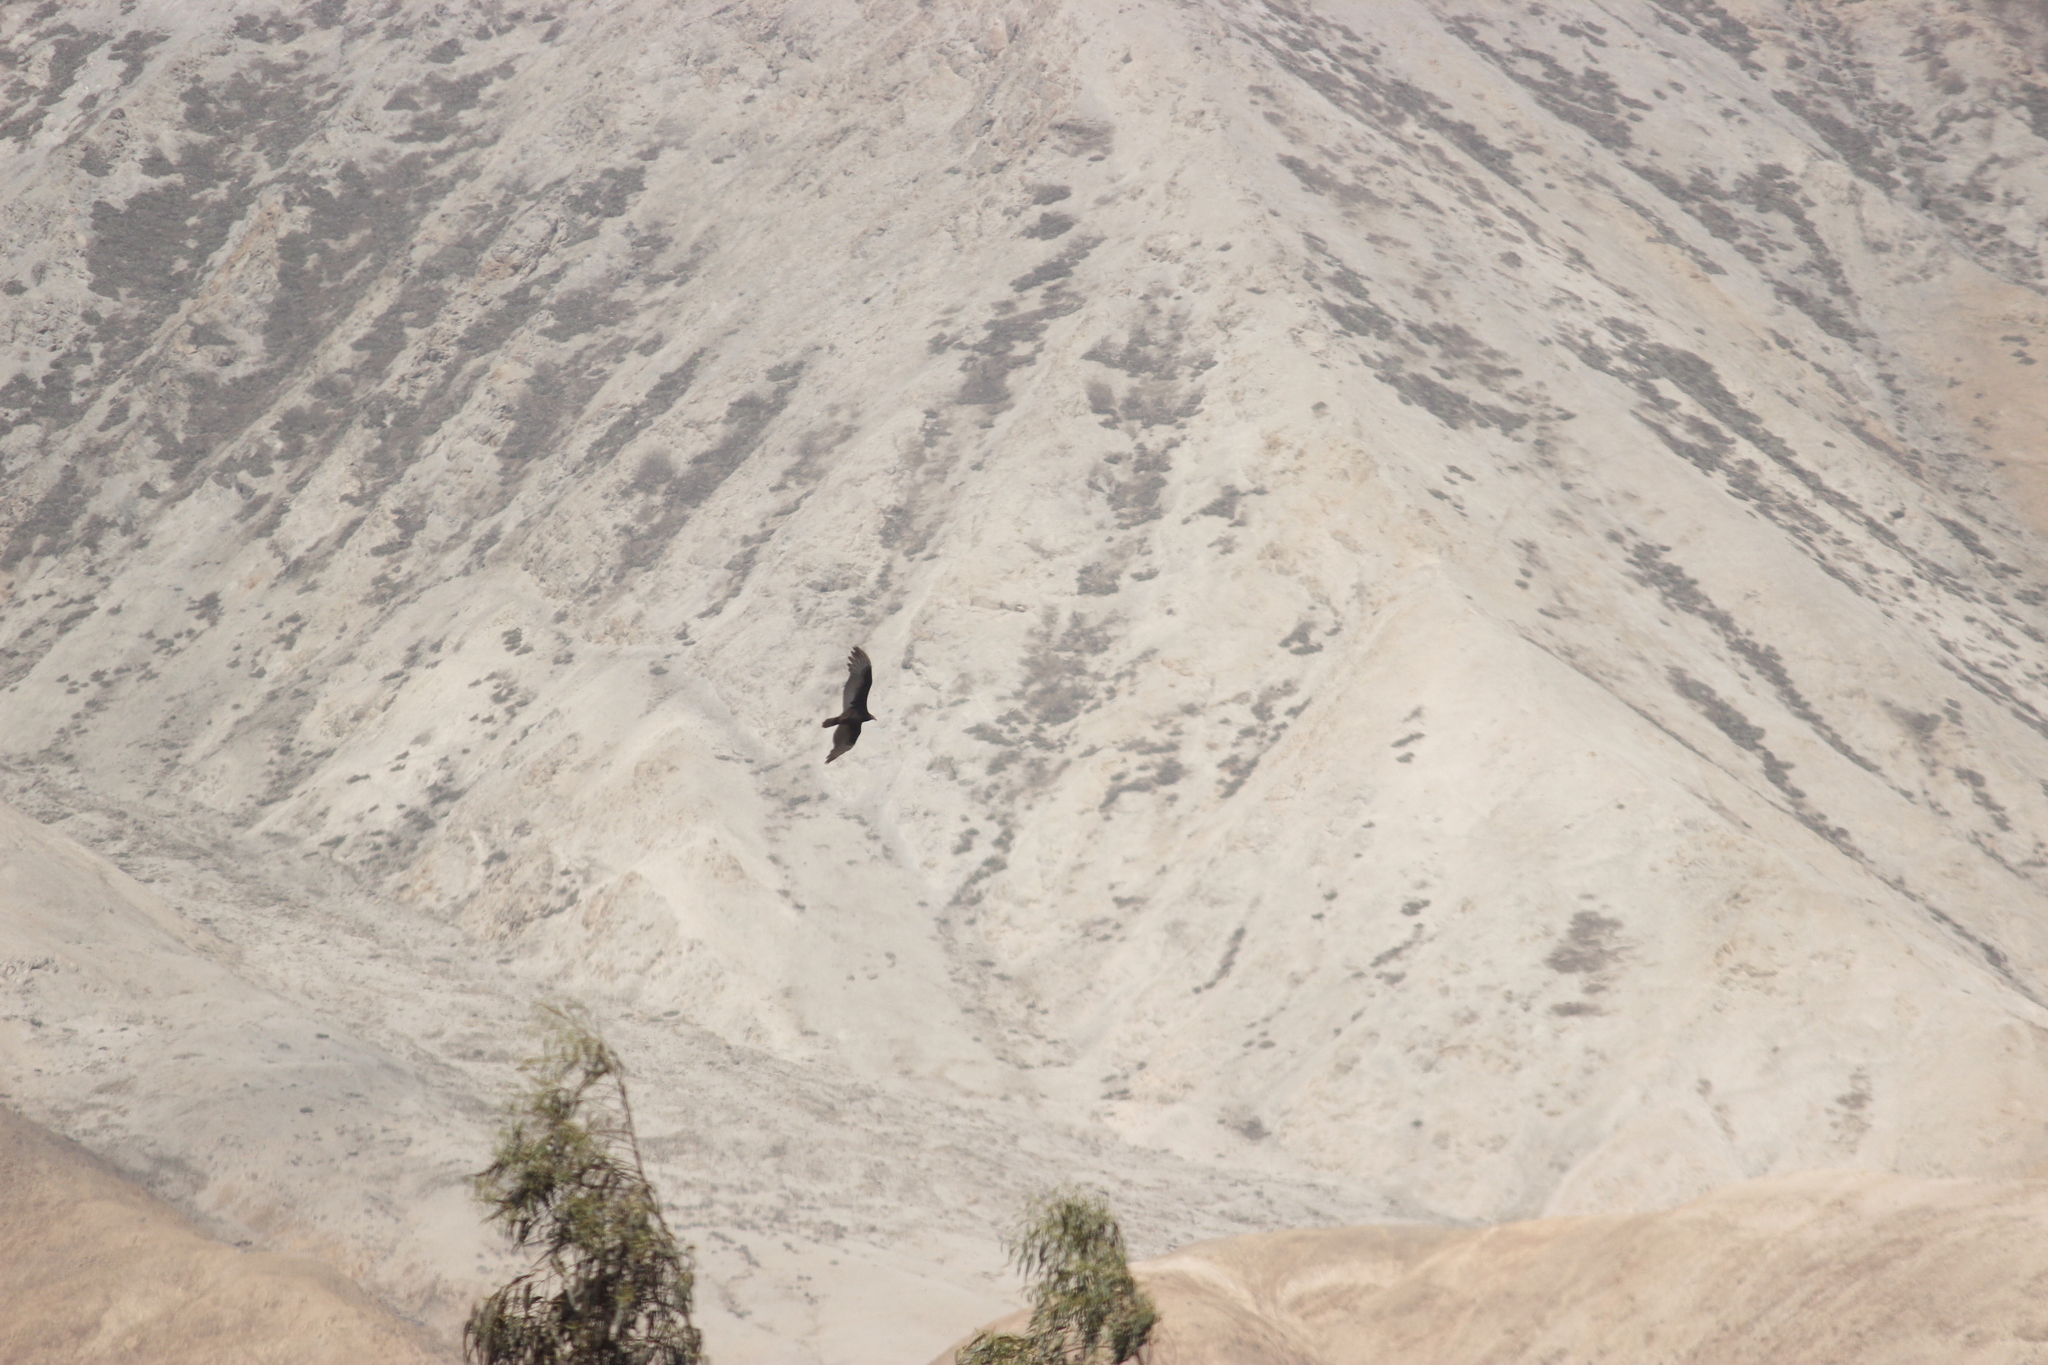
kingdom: Animalia
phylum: Chordata
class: Aves
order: Accipitriformes
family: Cathartidae
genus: Cathartes
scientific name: Cathartes aura
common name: Turkey vulture
